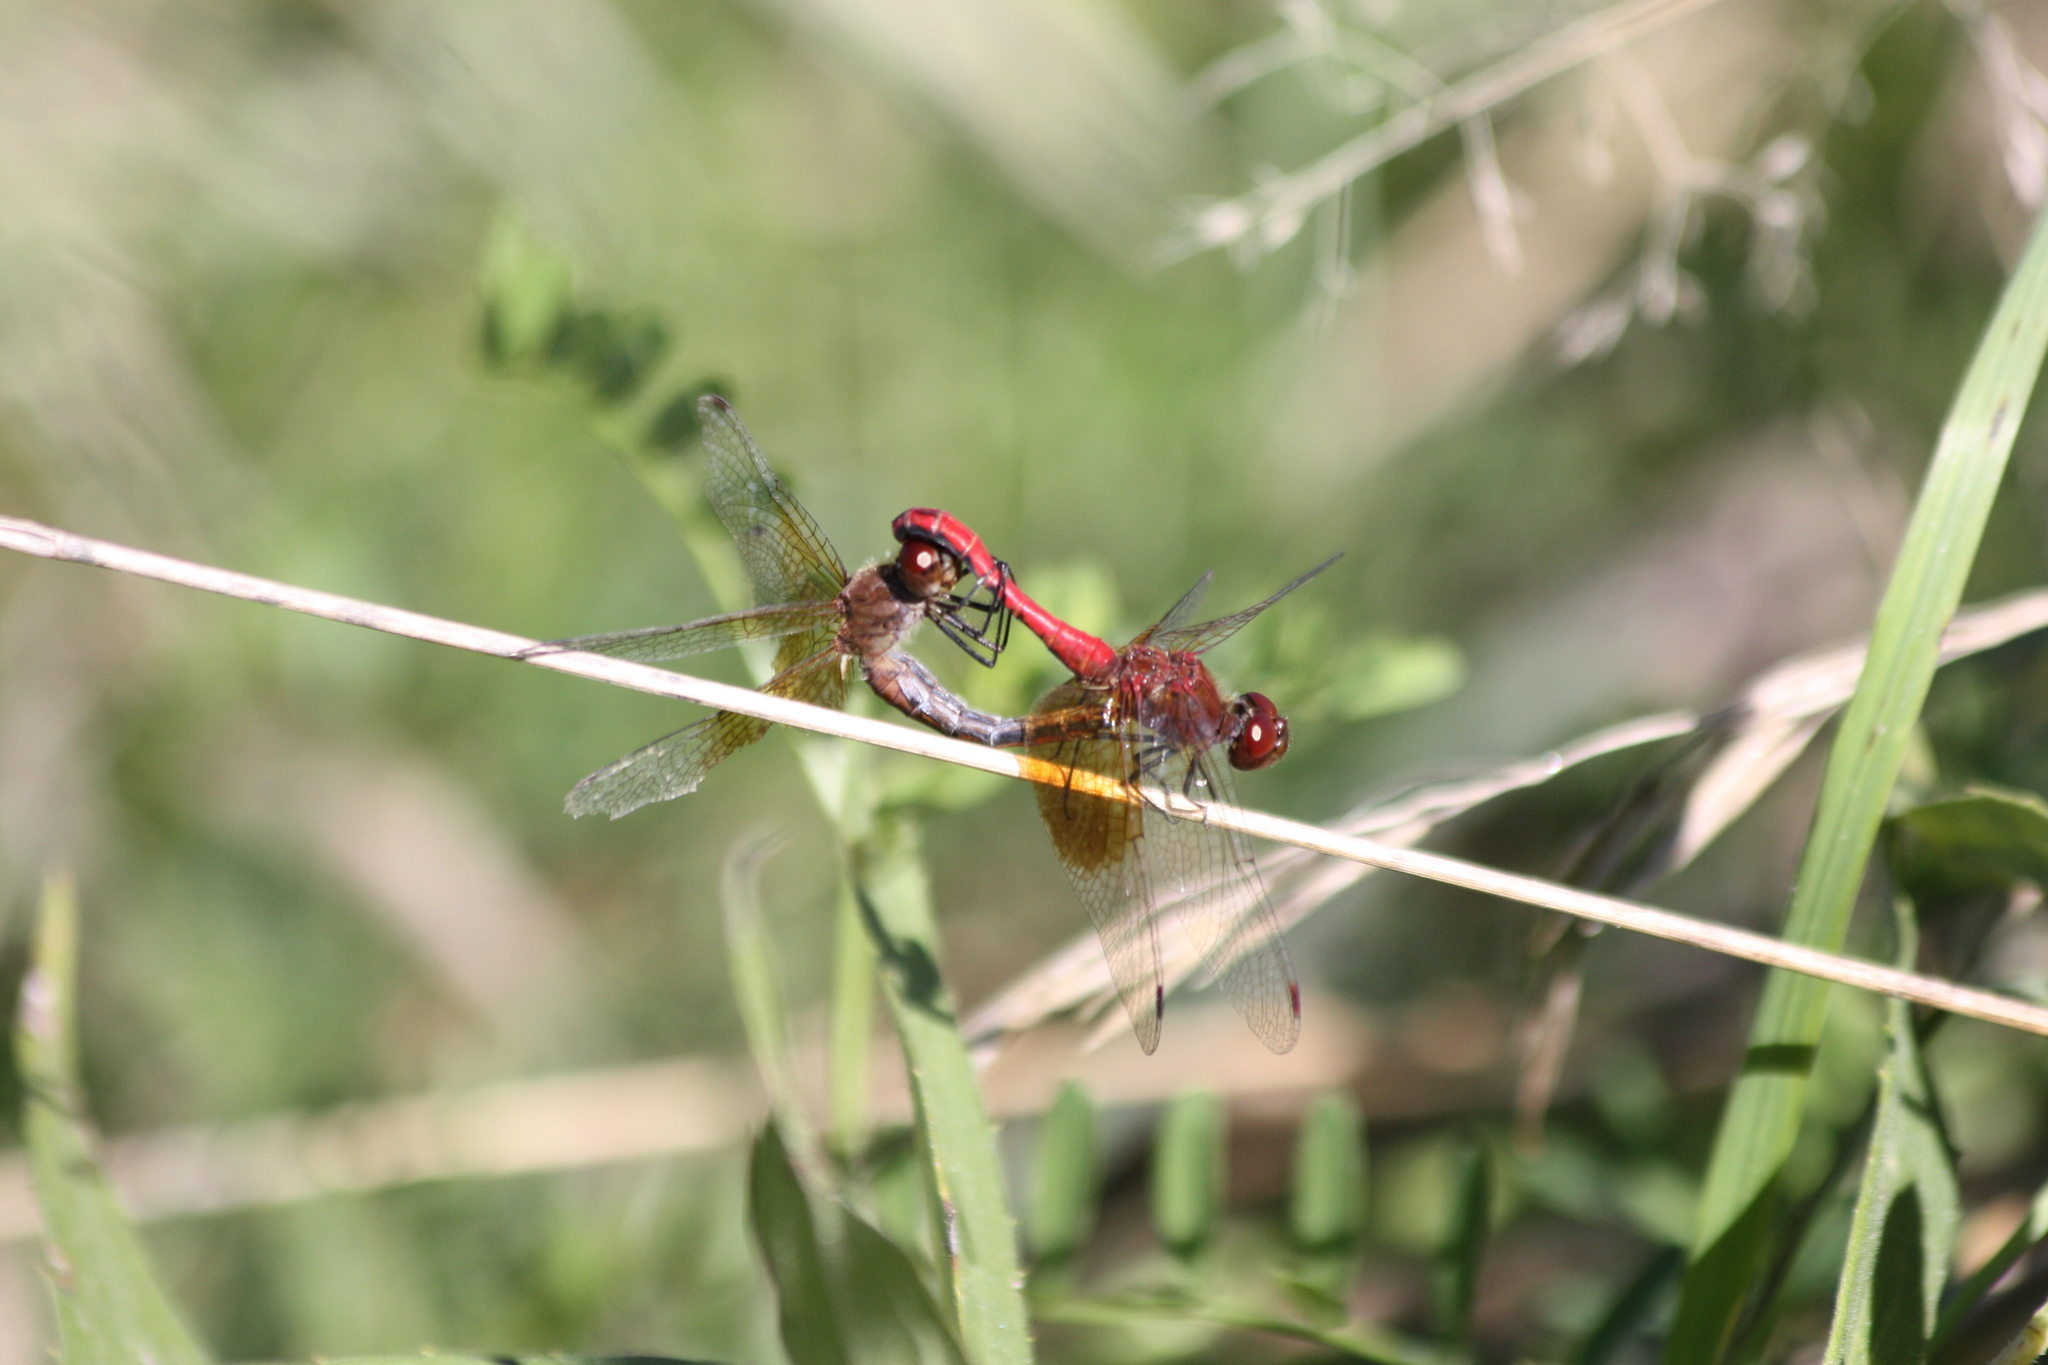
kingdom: Animalia
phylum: Arthropoda
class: Insecta
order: Odonata
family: Libellulidae
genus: Sympetrum
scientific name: Sympetrum semicinctum
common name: Band-winged meadowhawk
